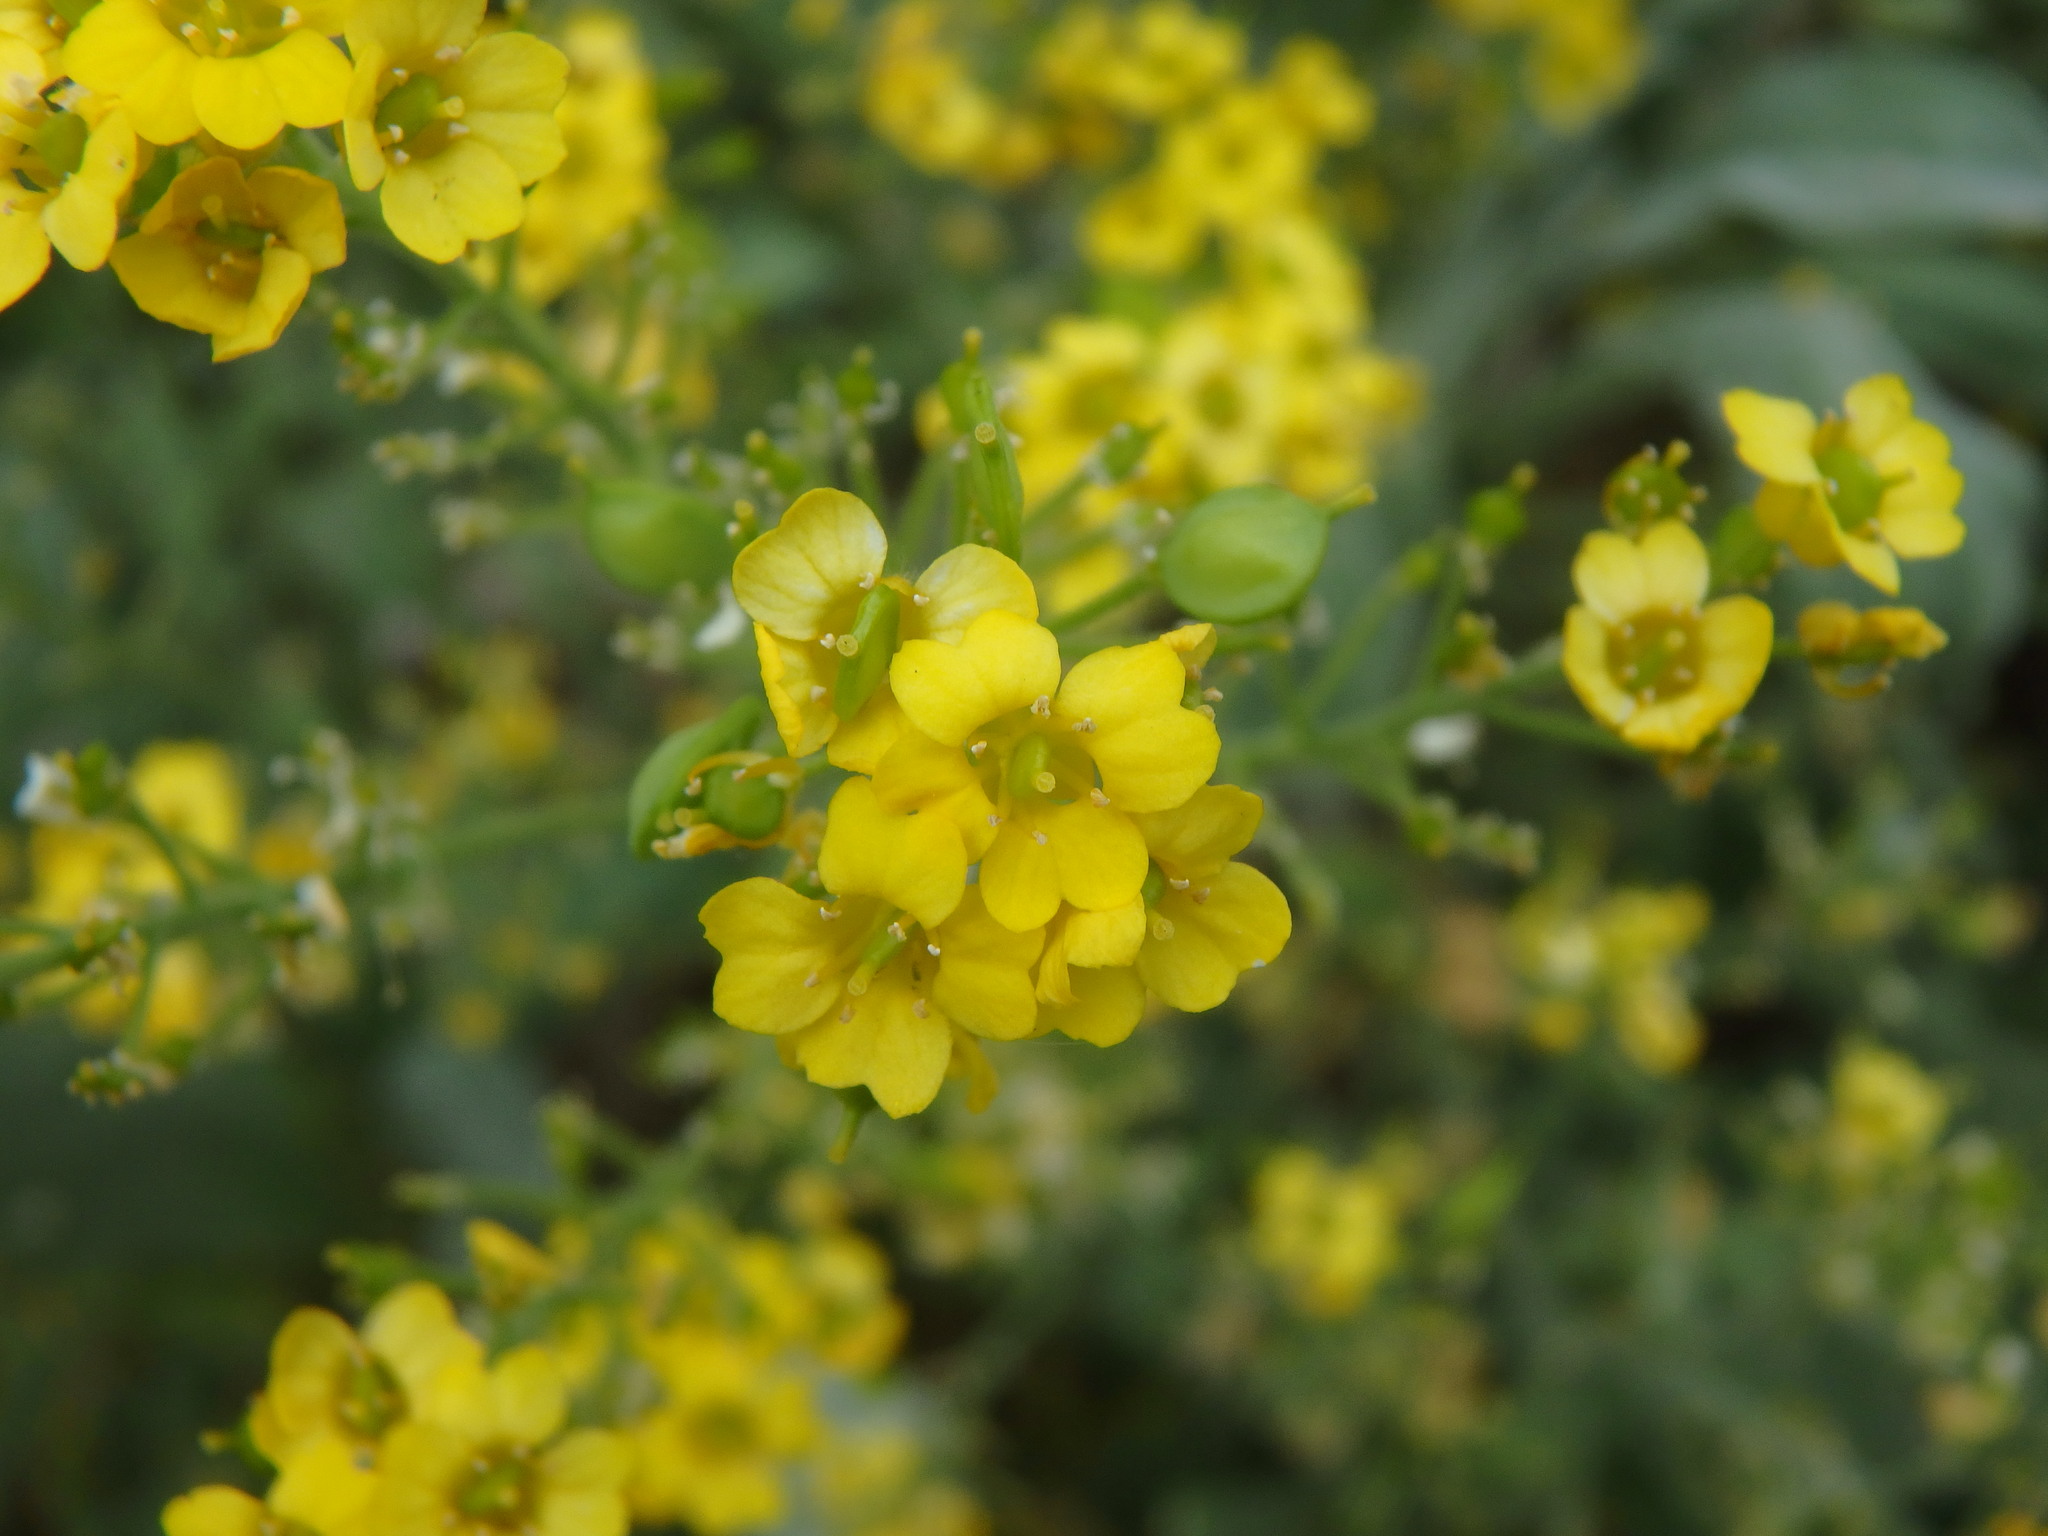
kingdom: Plantae
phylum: Tracheophyta
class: Magnoliopsida
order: Brassicales
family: Brassicaceae
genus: Aurinia
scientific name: Aurinia saxatilis
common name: Golden-tuft alyssum
